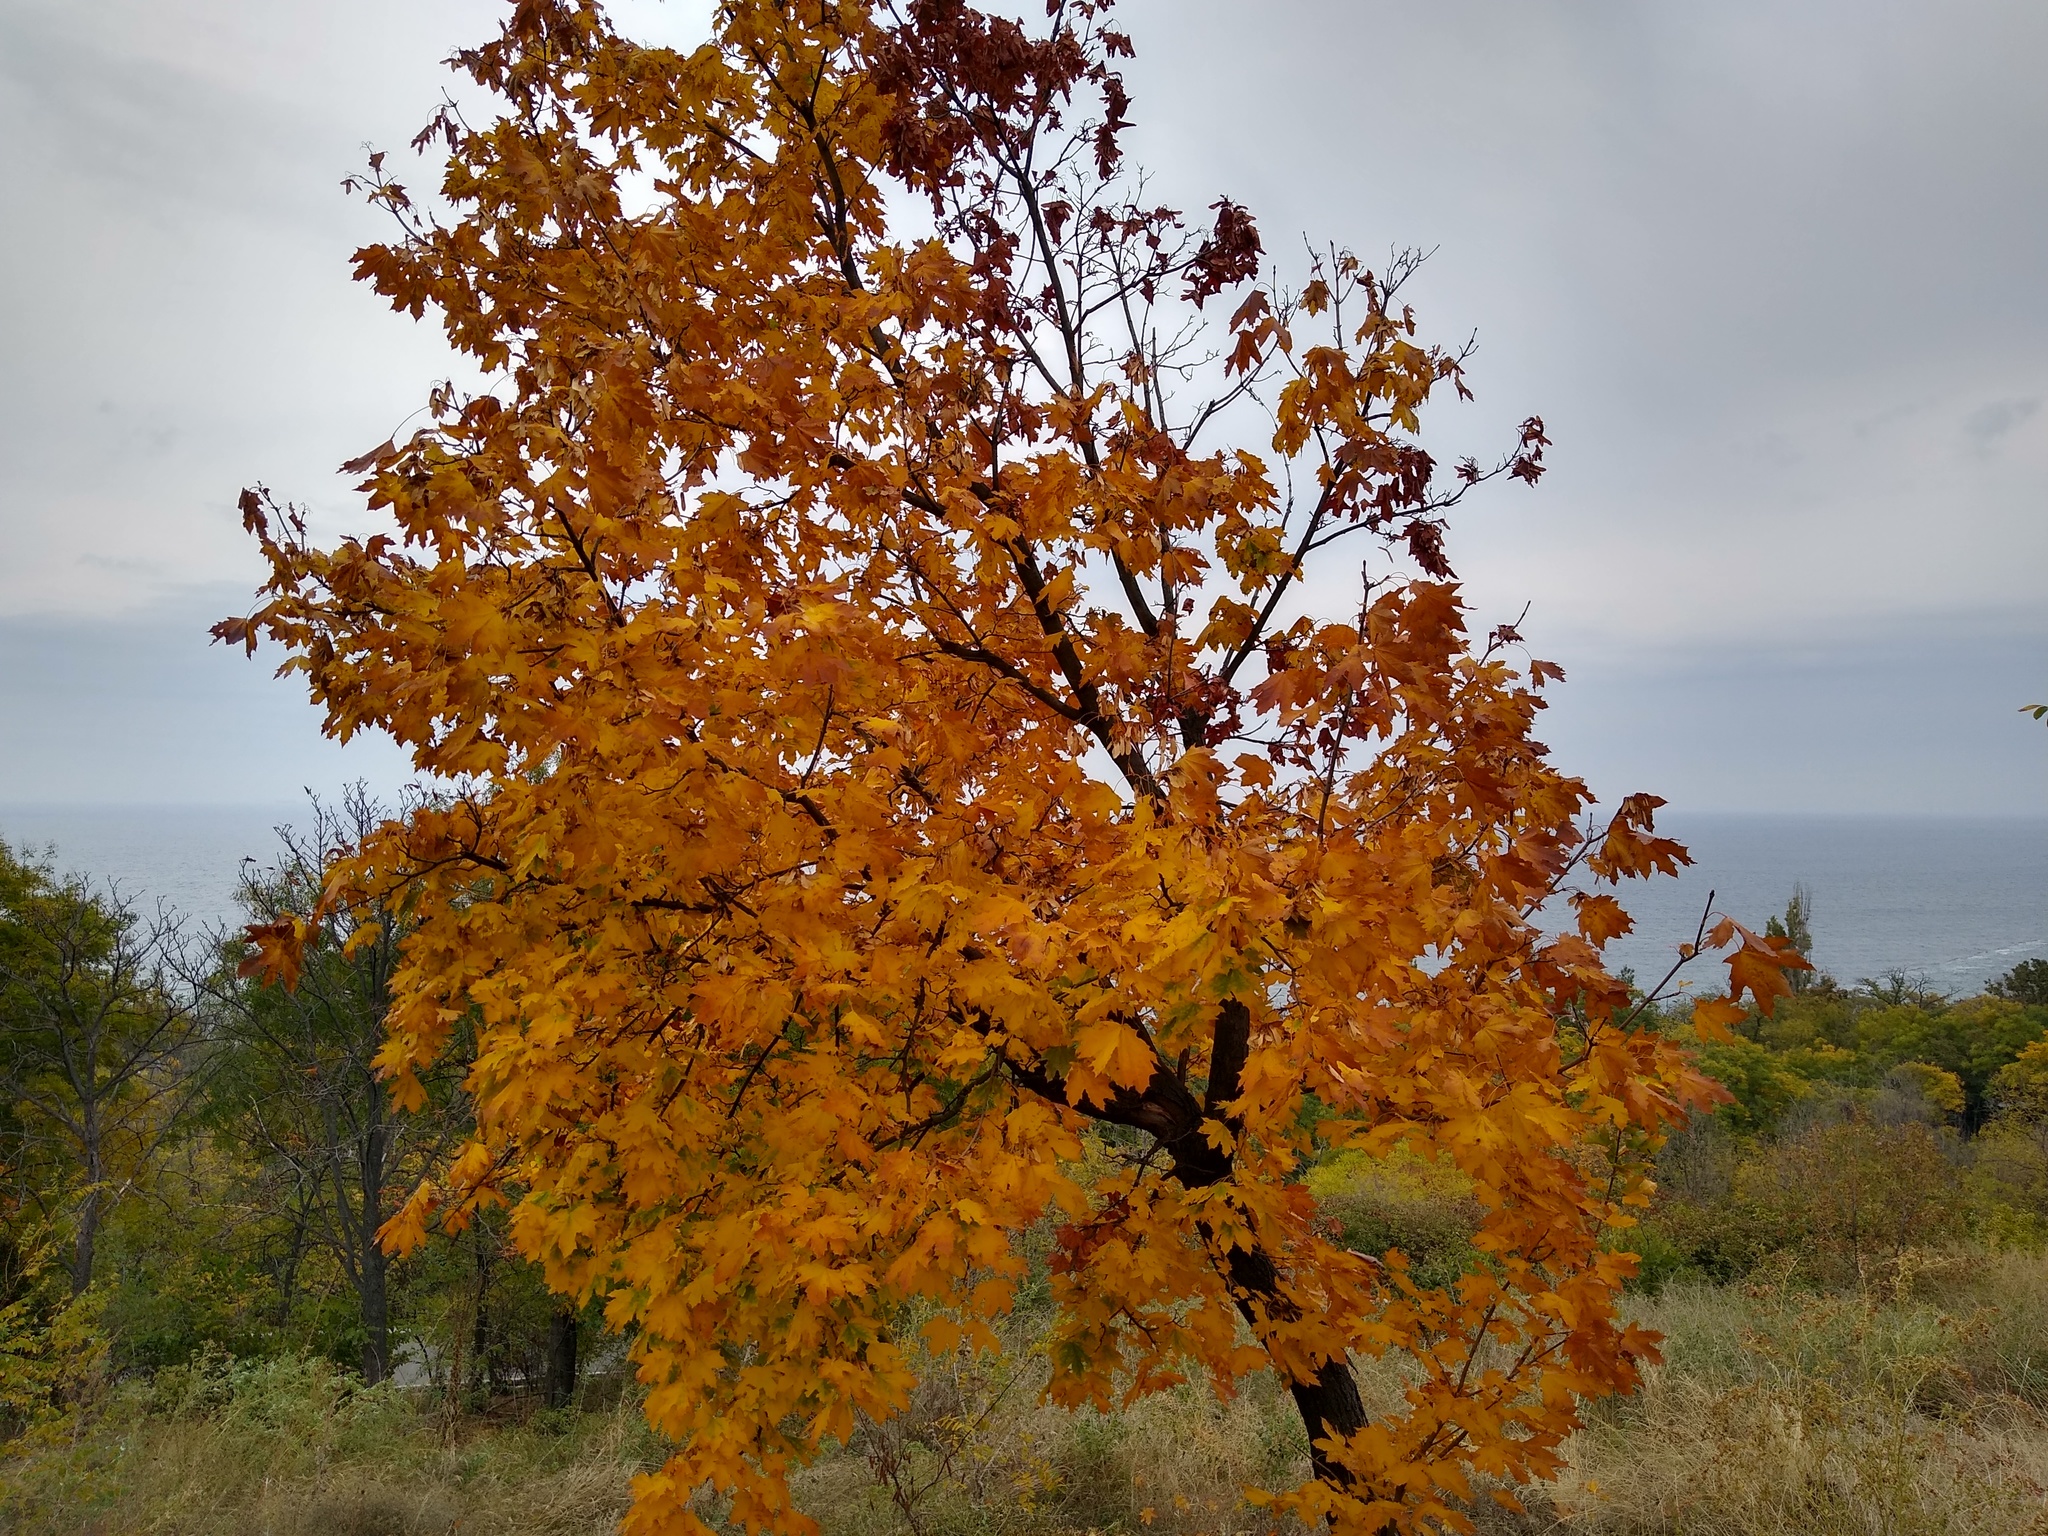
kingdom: Plantae
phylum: Tracheophyta
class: Magnoliopsida
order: Sapindales
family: Sapindaceae
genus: Acer
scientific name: Acer platanoides
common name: Norway maple
